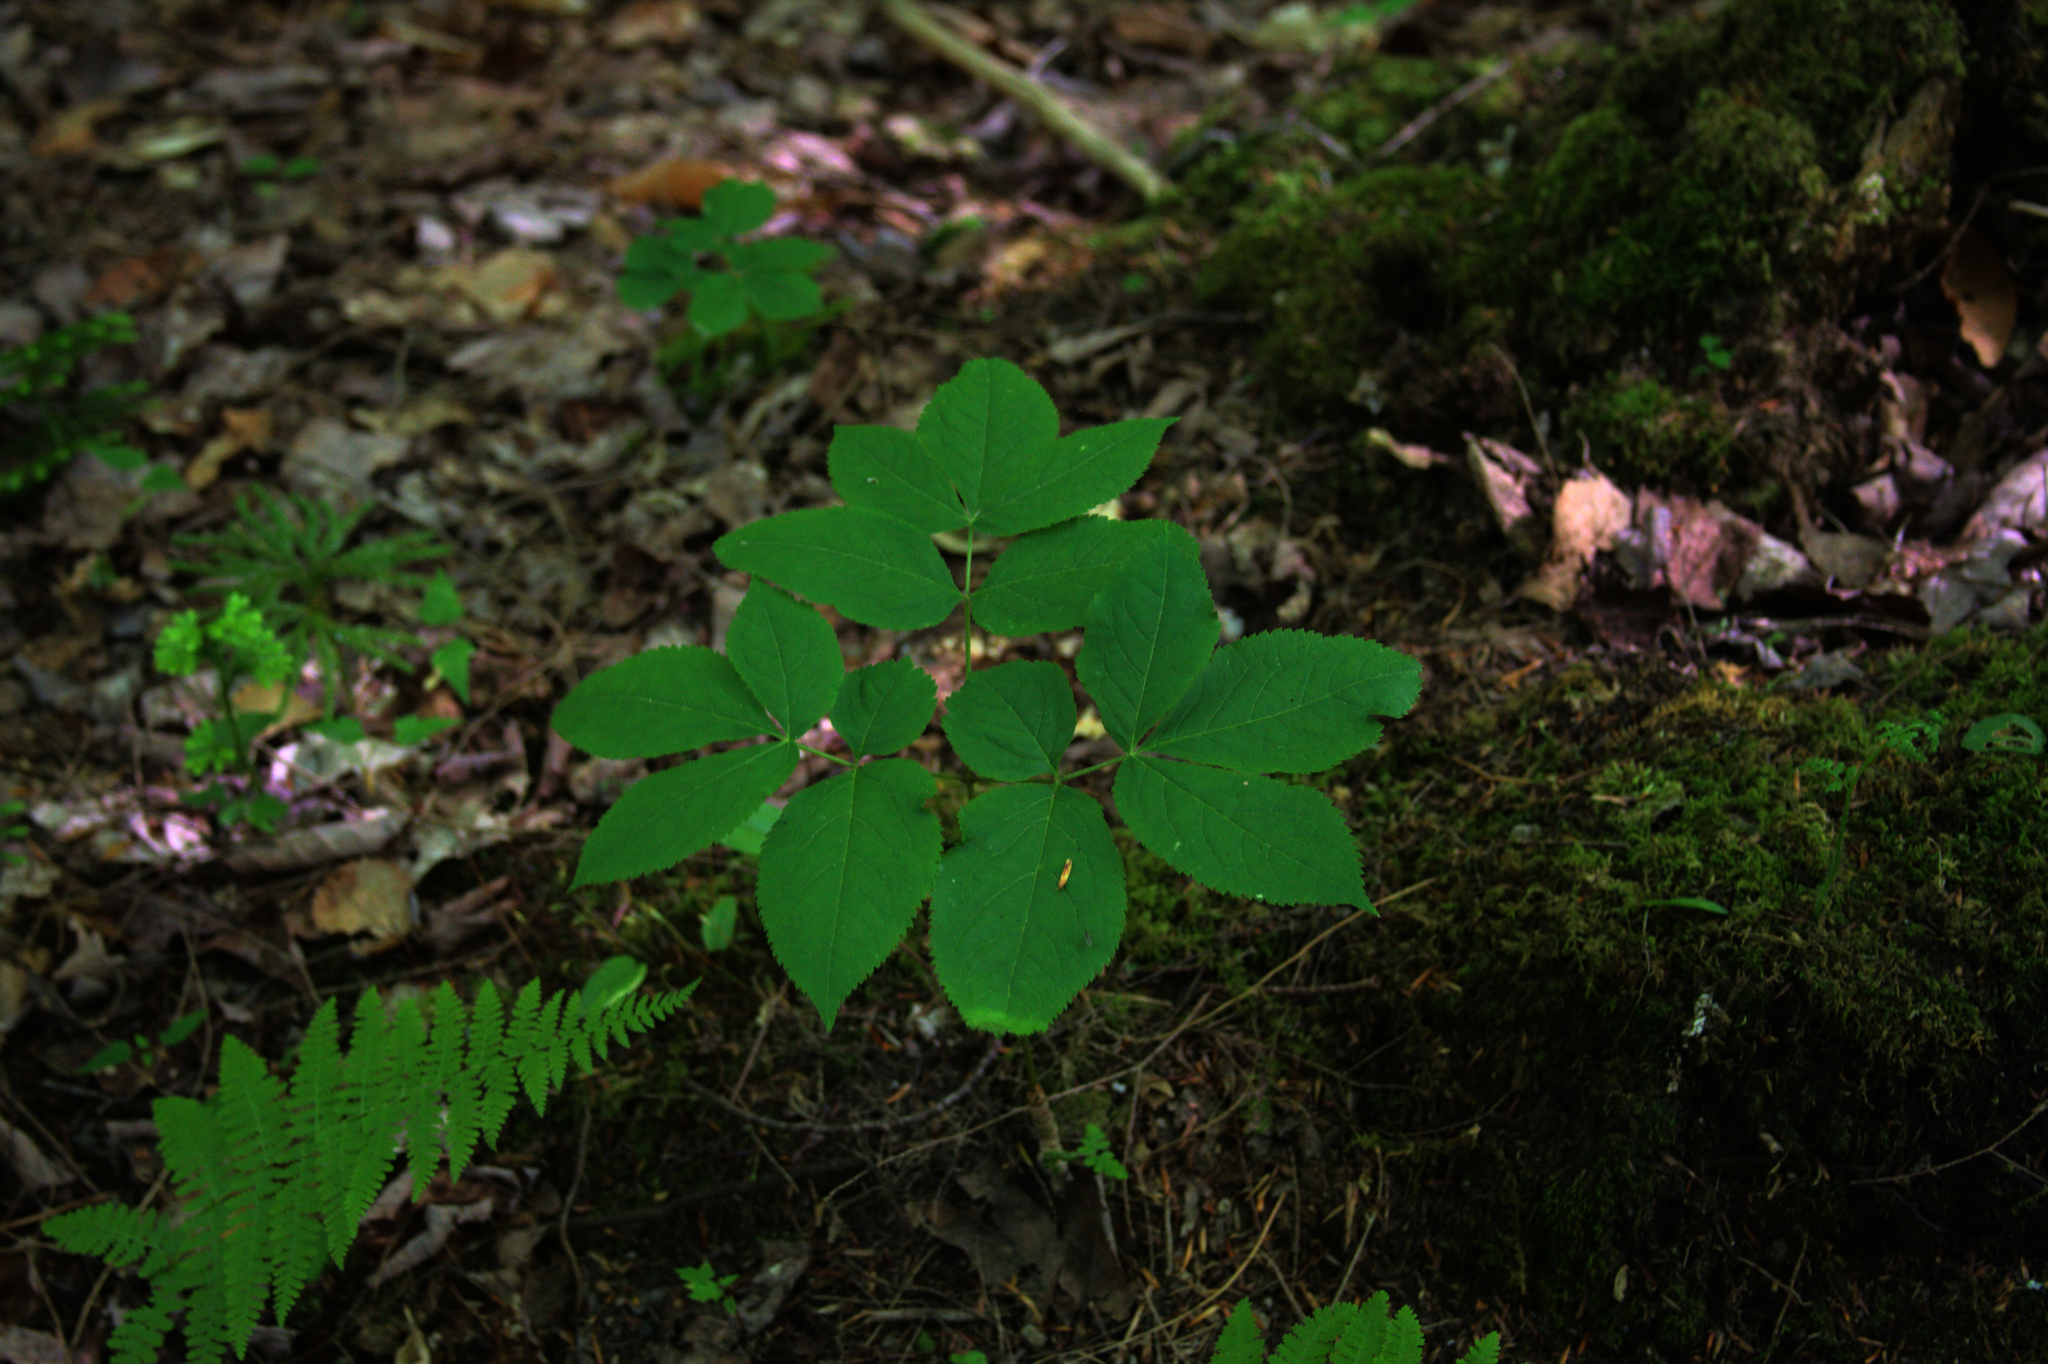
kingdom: Plantae
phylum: Tracheophyta
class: Magnoliopsida
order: Apiales
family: Araliaceae
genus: Aralia
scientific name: Aralia nudicaulis
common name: Wild sarsaparilla
